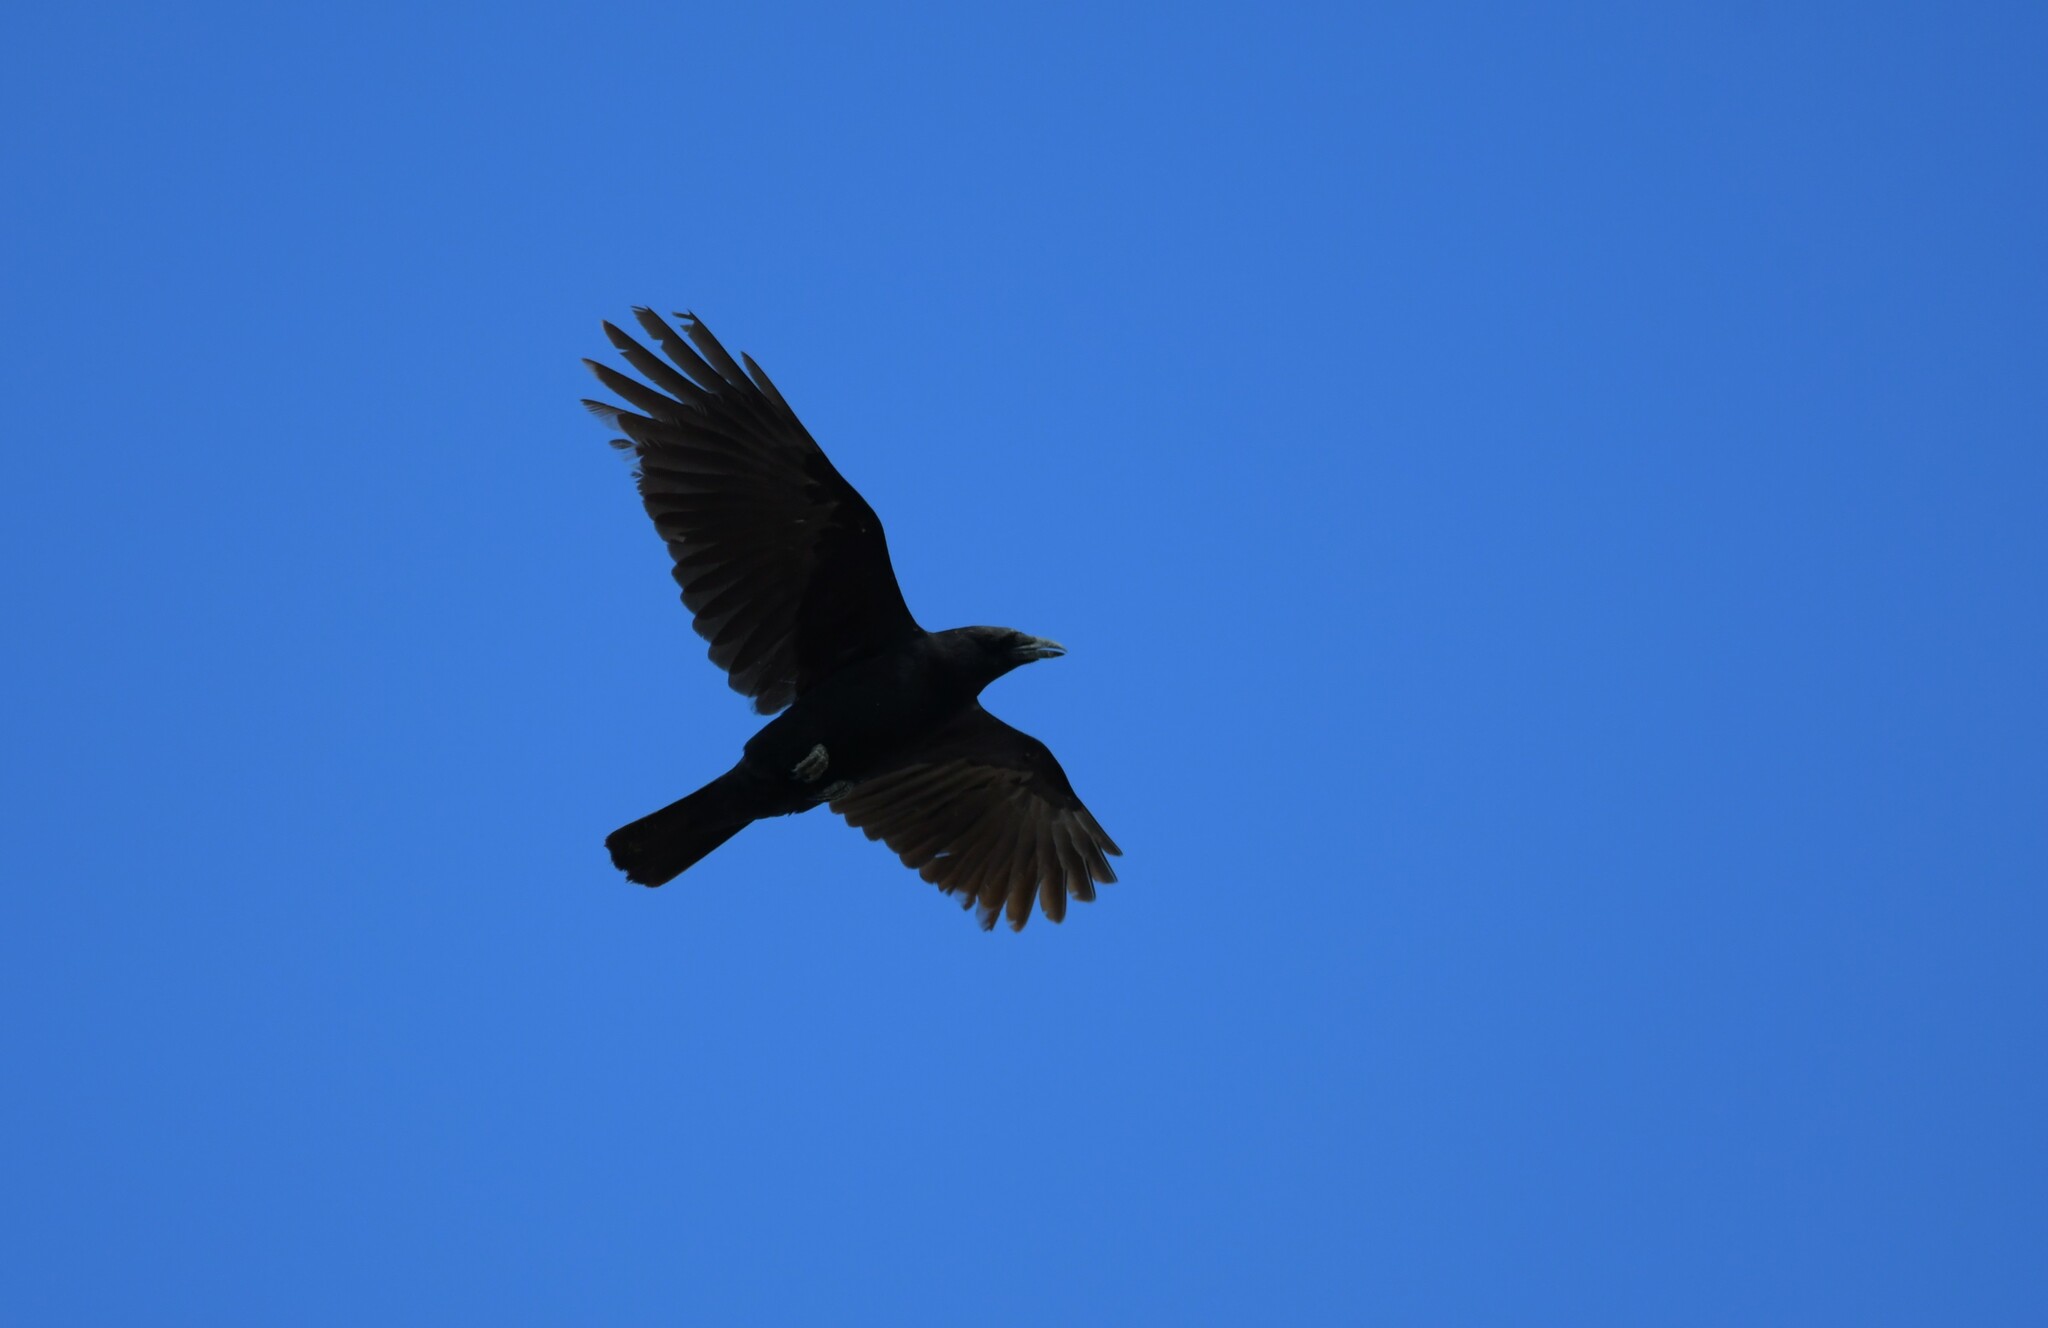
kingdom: Animalia
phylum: Chordata
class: Aves
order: Passeriformes
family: Corvidae
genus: Corvus
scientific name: Corvus corone
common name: Carrion crow
